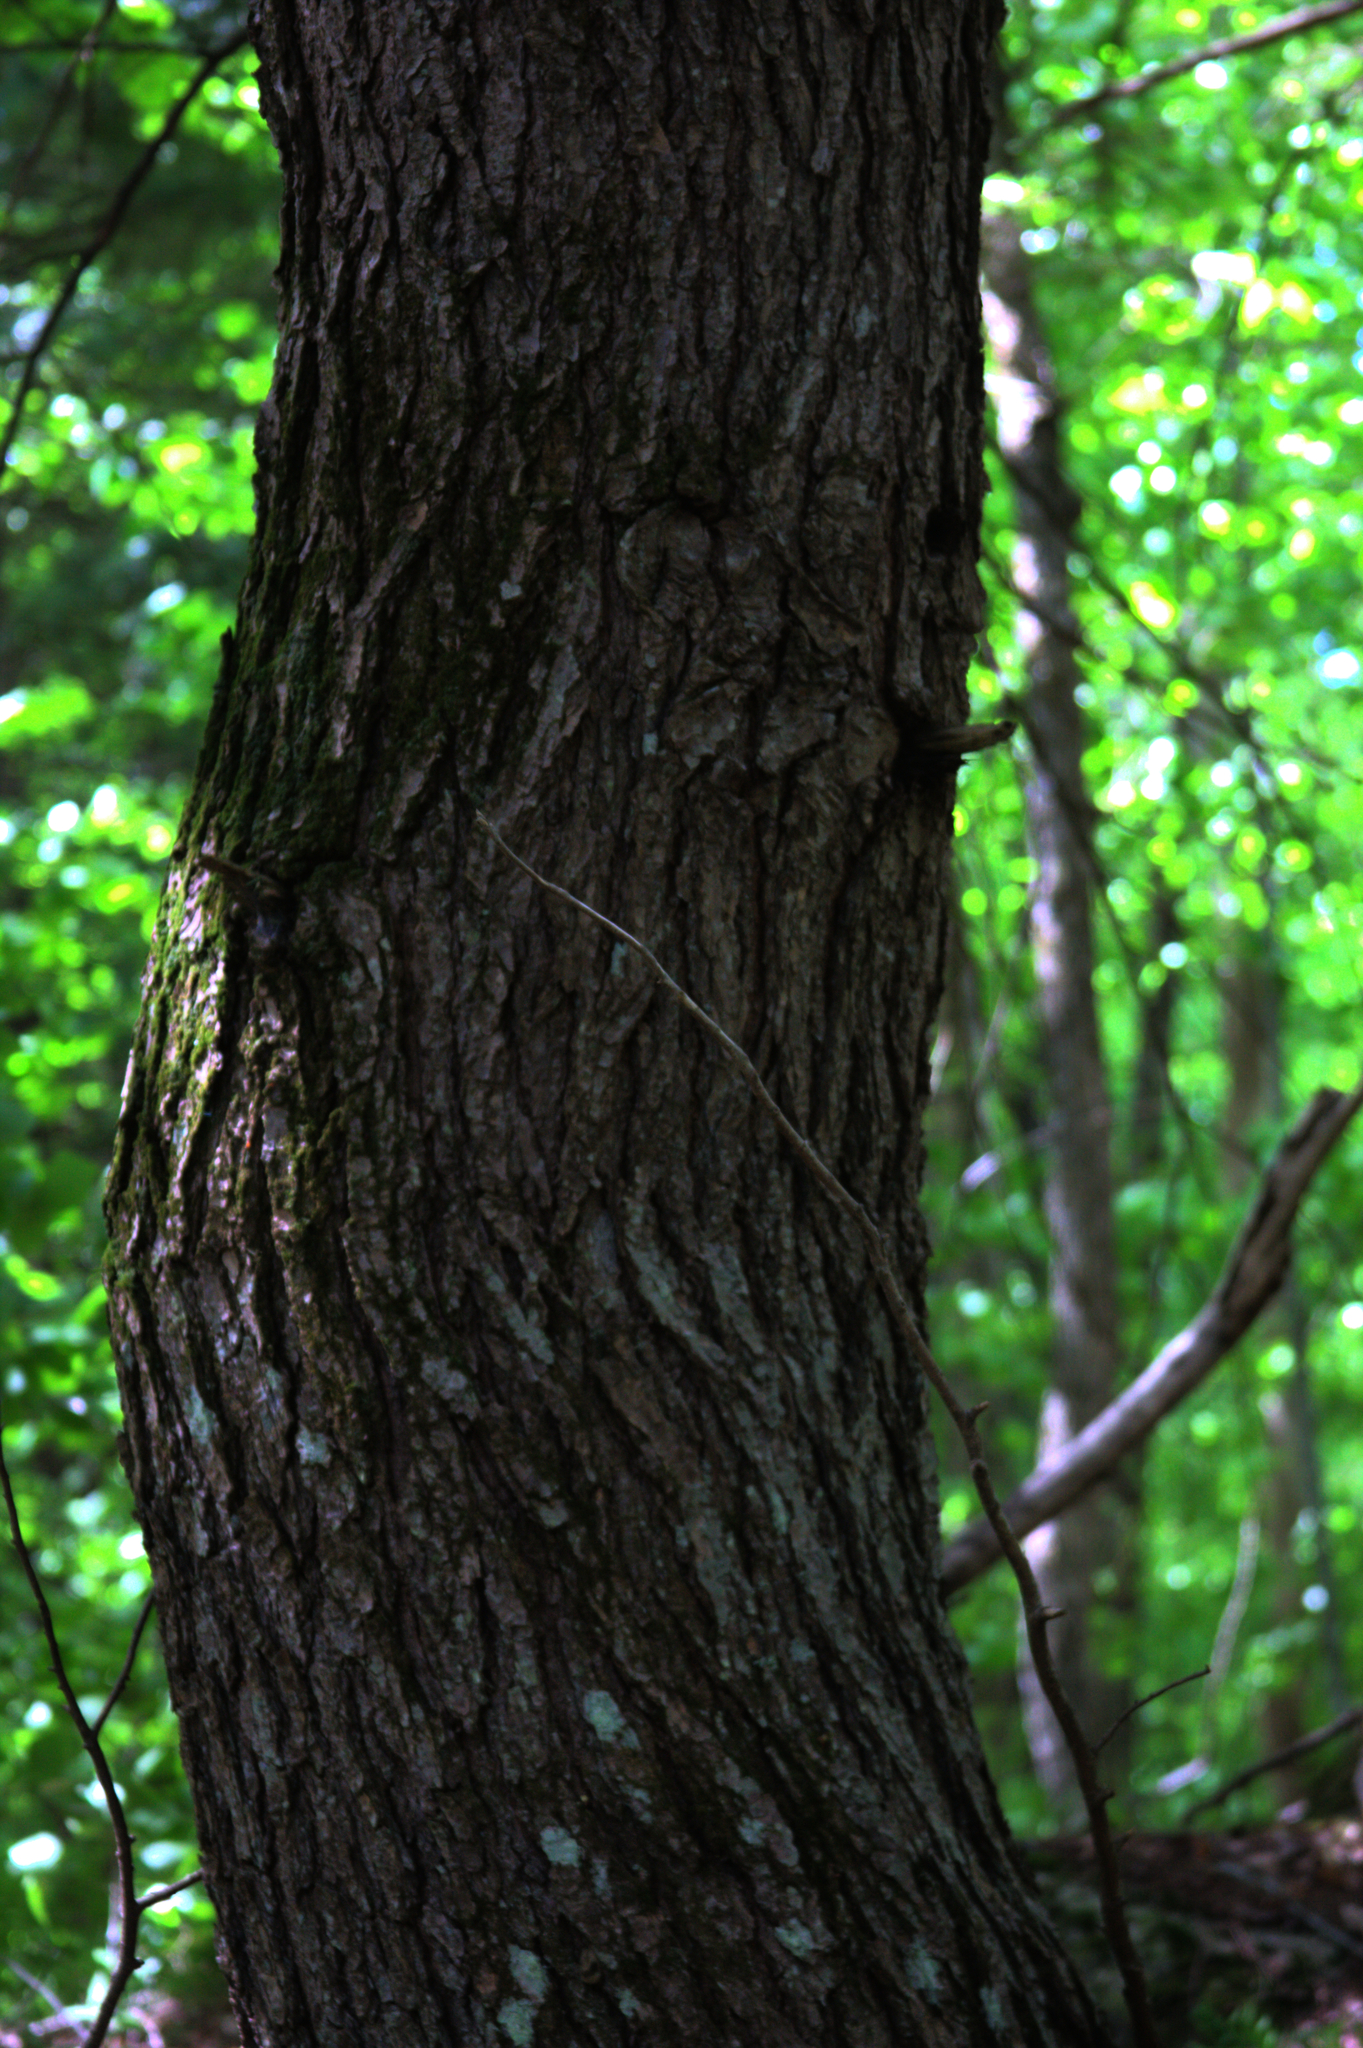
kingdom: Plantae
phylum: Tracheophyta
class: Pinopsida
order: Pinales
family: Pinaceae
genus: Tsuga
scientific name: Tsuga canadensis
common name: Eastern hemlock
